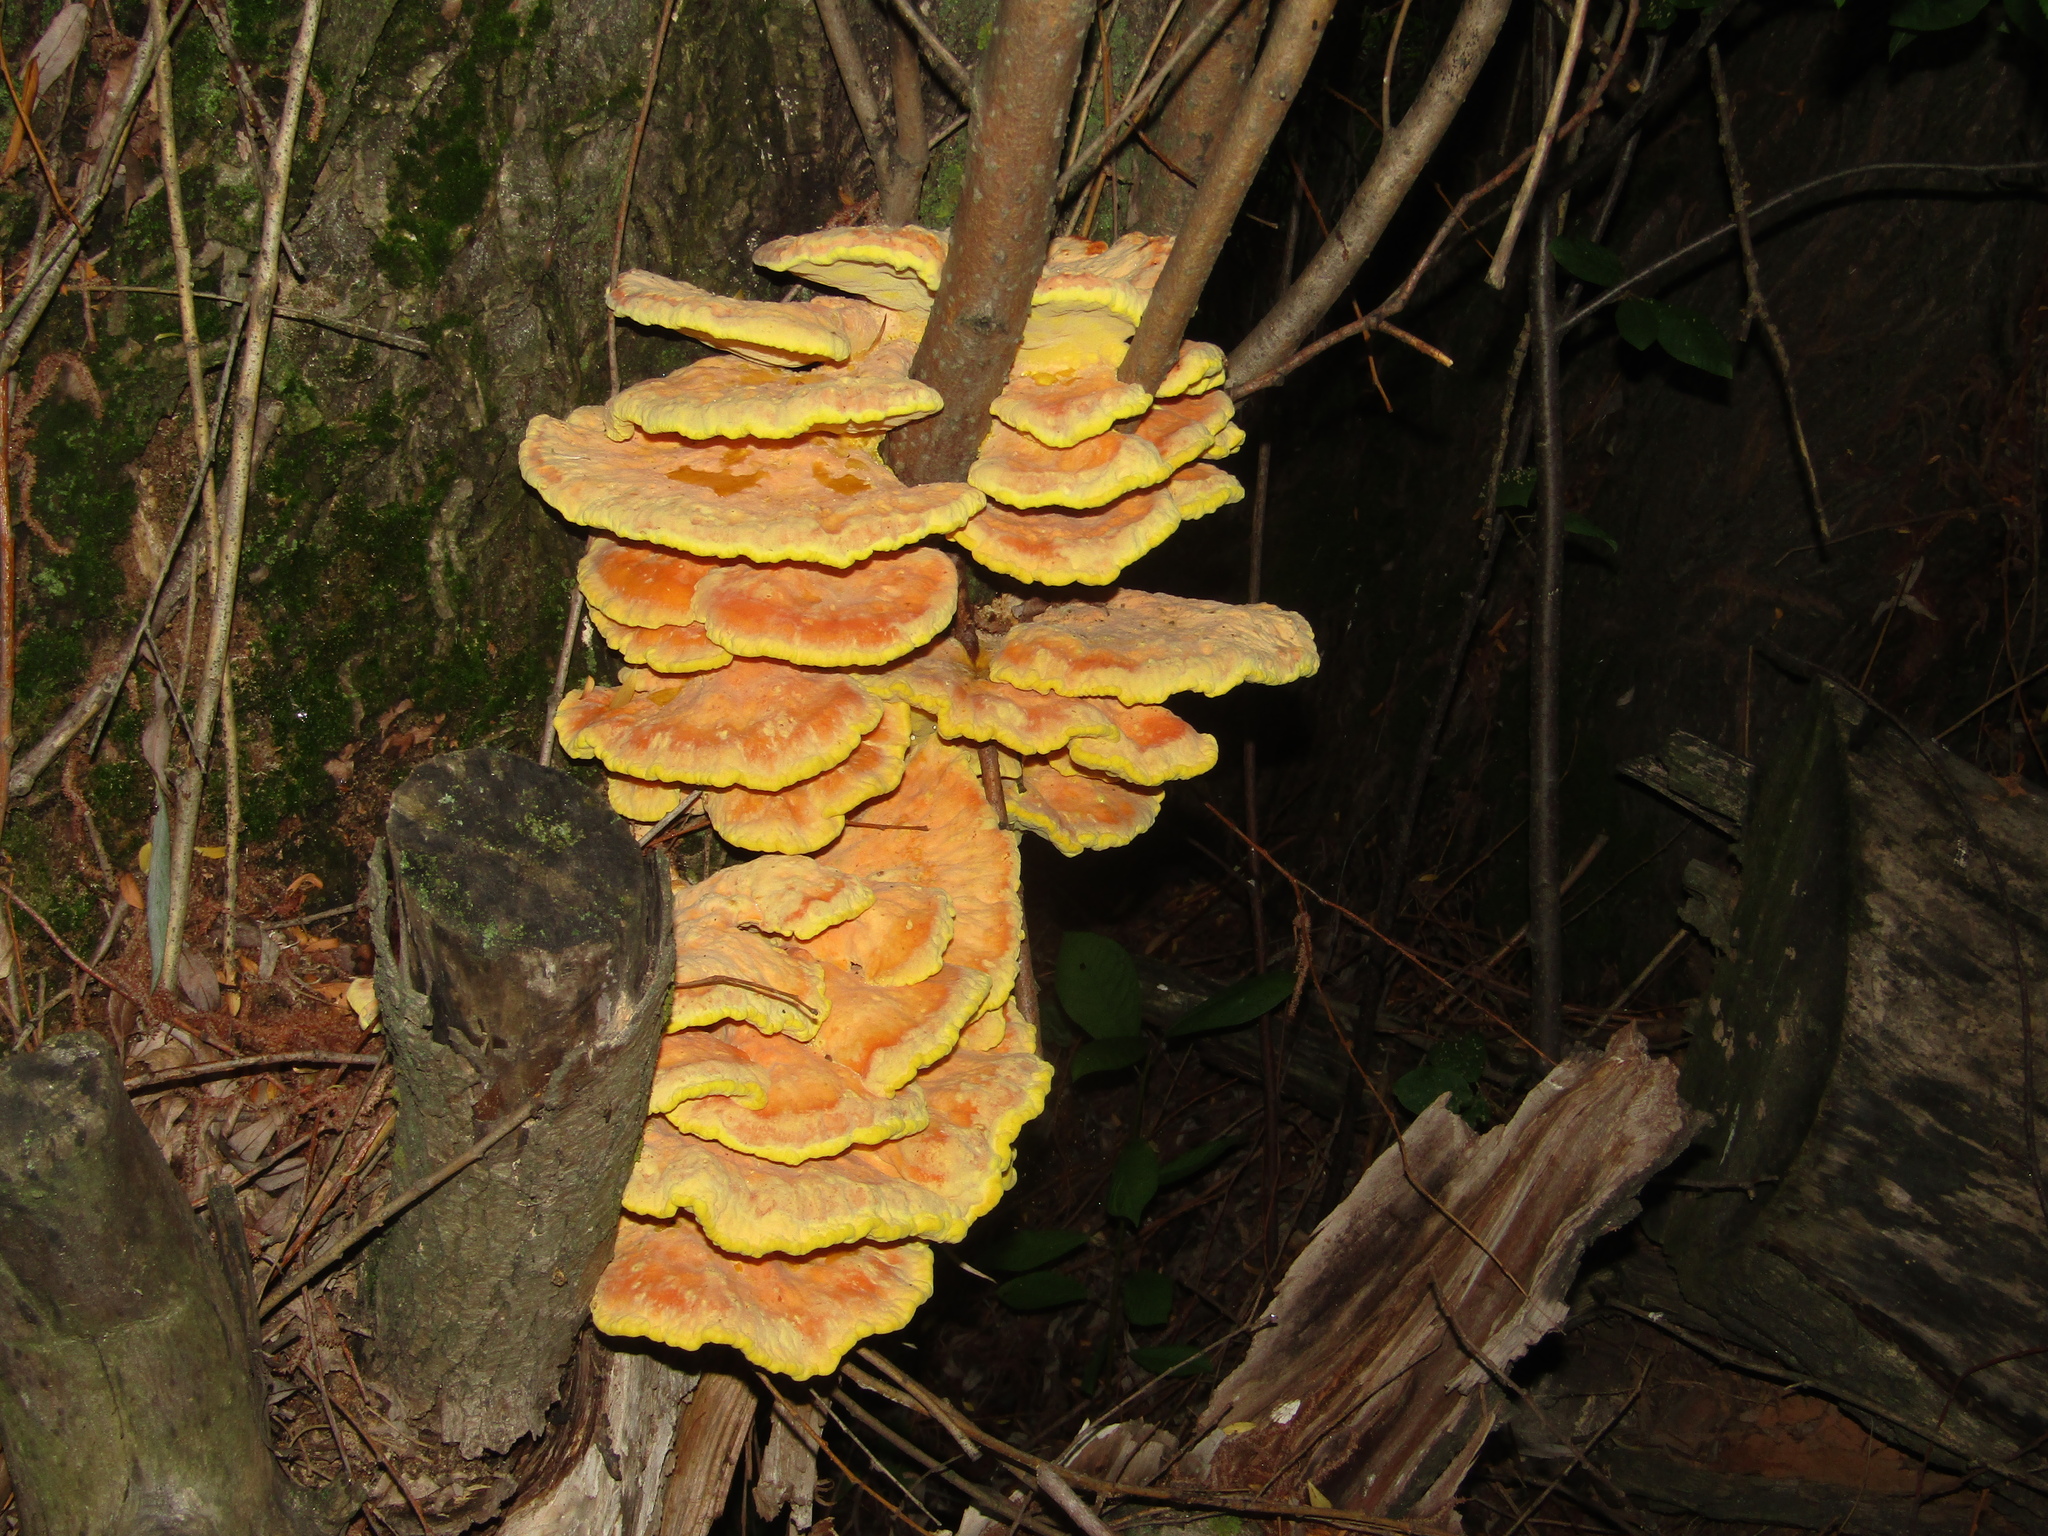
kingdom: Fungi
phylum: Basidiomycota
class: Agaricomycetes
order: Polyporales
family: Laetiporaceae
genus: Laetiporus
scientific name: Laetiporus sulphureus
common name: Chicken of the woods
